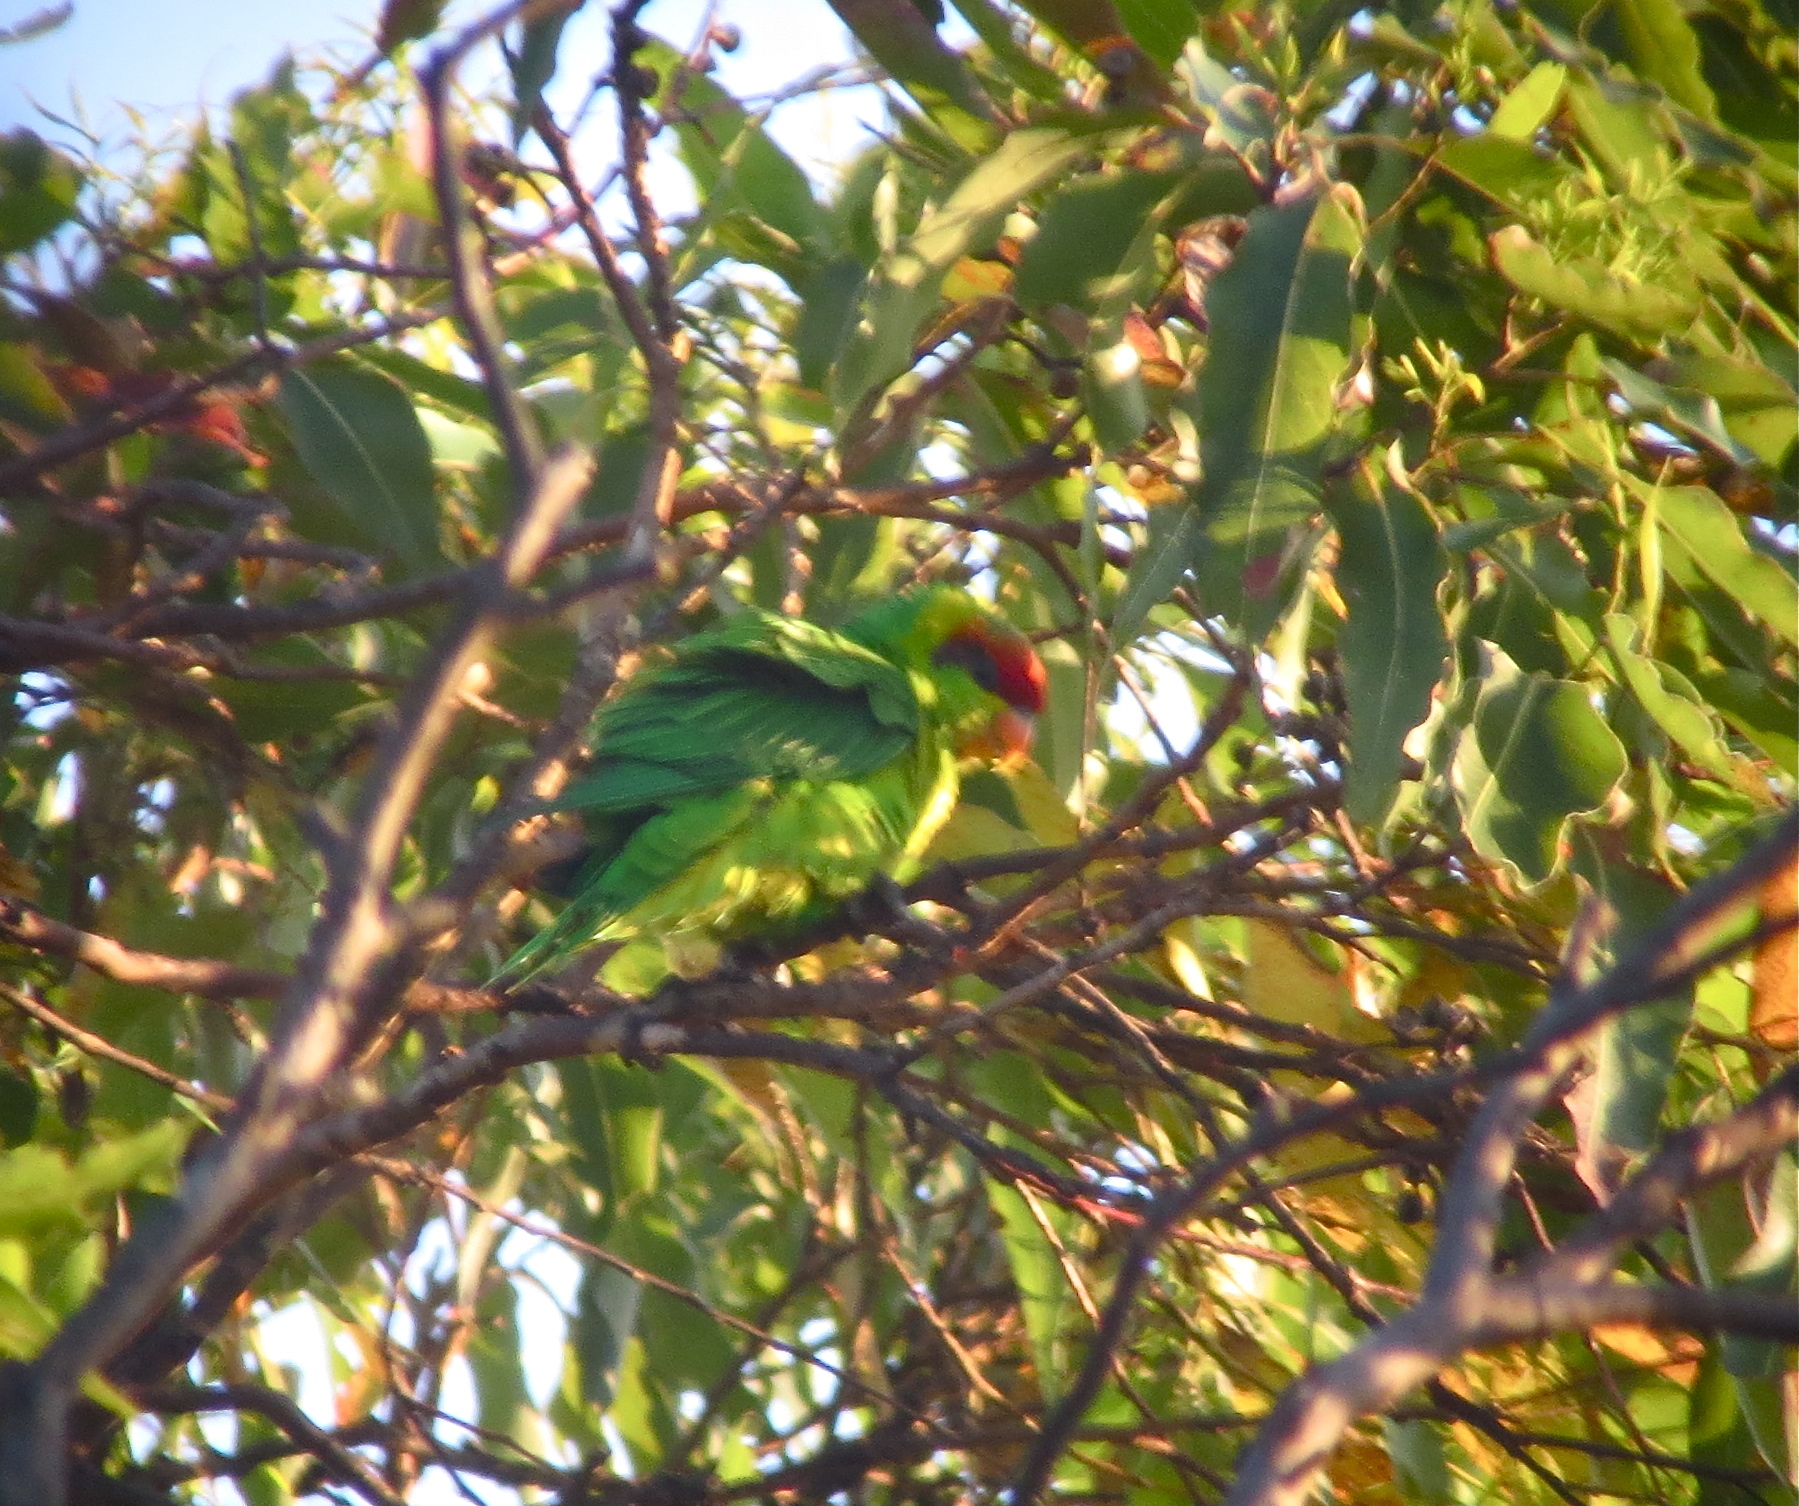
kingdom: Animalia
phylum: Chordata
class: Aves
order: Psittaciformes
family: Psittaculidae
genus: Saudareos
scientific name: Saudareos iris
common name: Iris lorikeet
